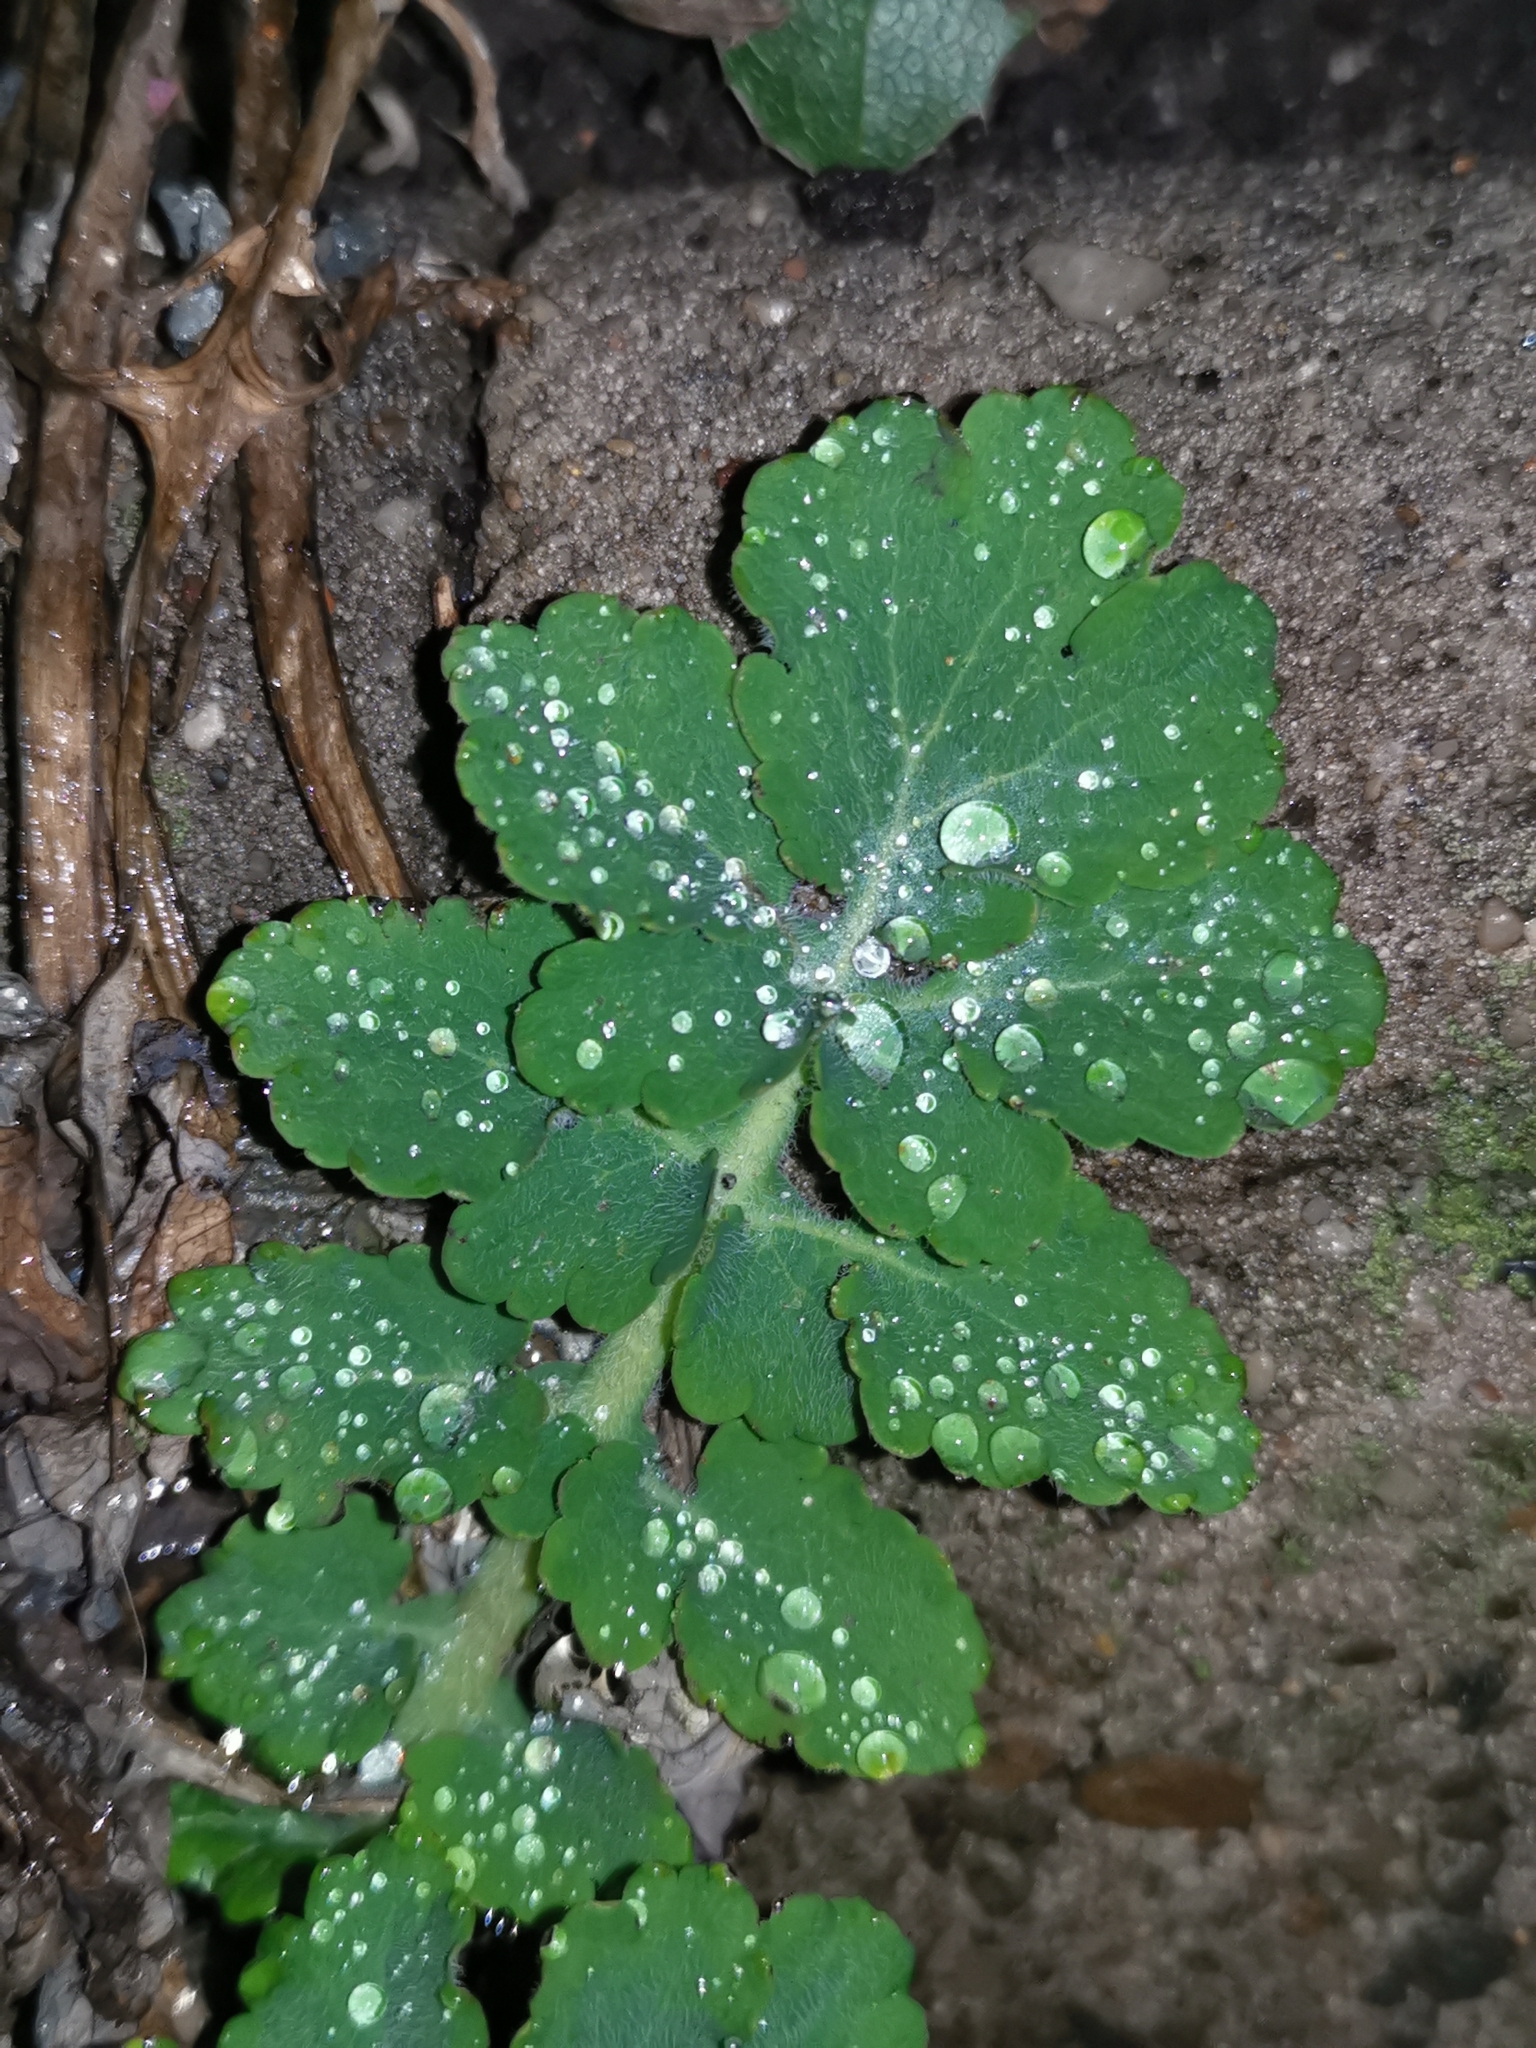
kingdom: Plantae
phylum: Tracheophyta
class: Magnoliopsida
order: Ranunculales
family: Papaveraceae
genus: Chelidonium
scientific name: Chelidonium majus
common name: Greater celandine
